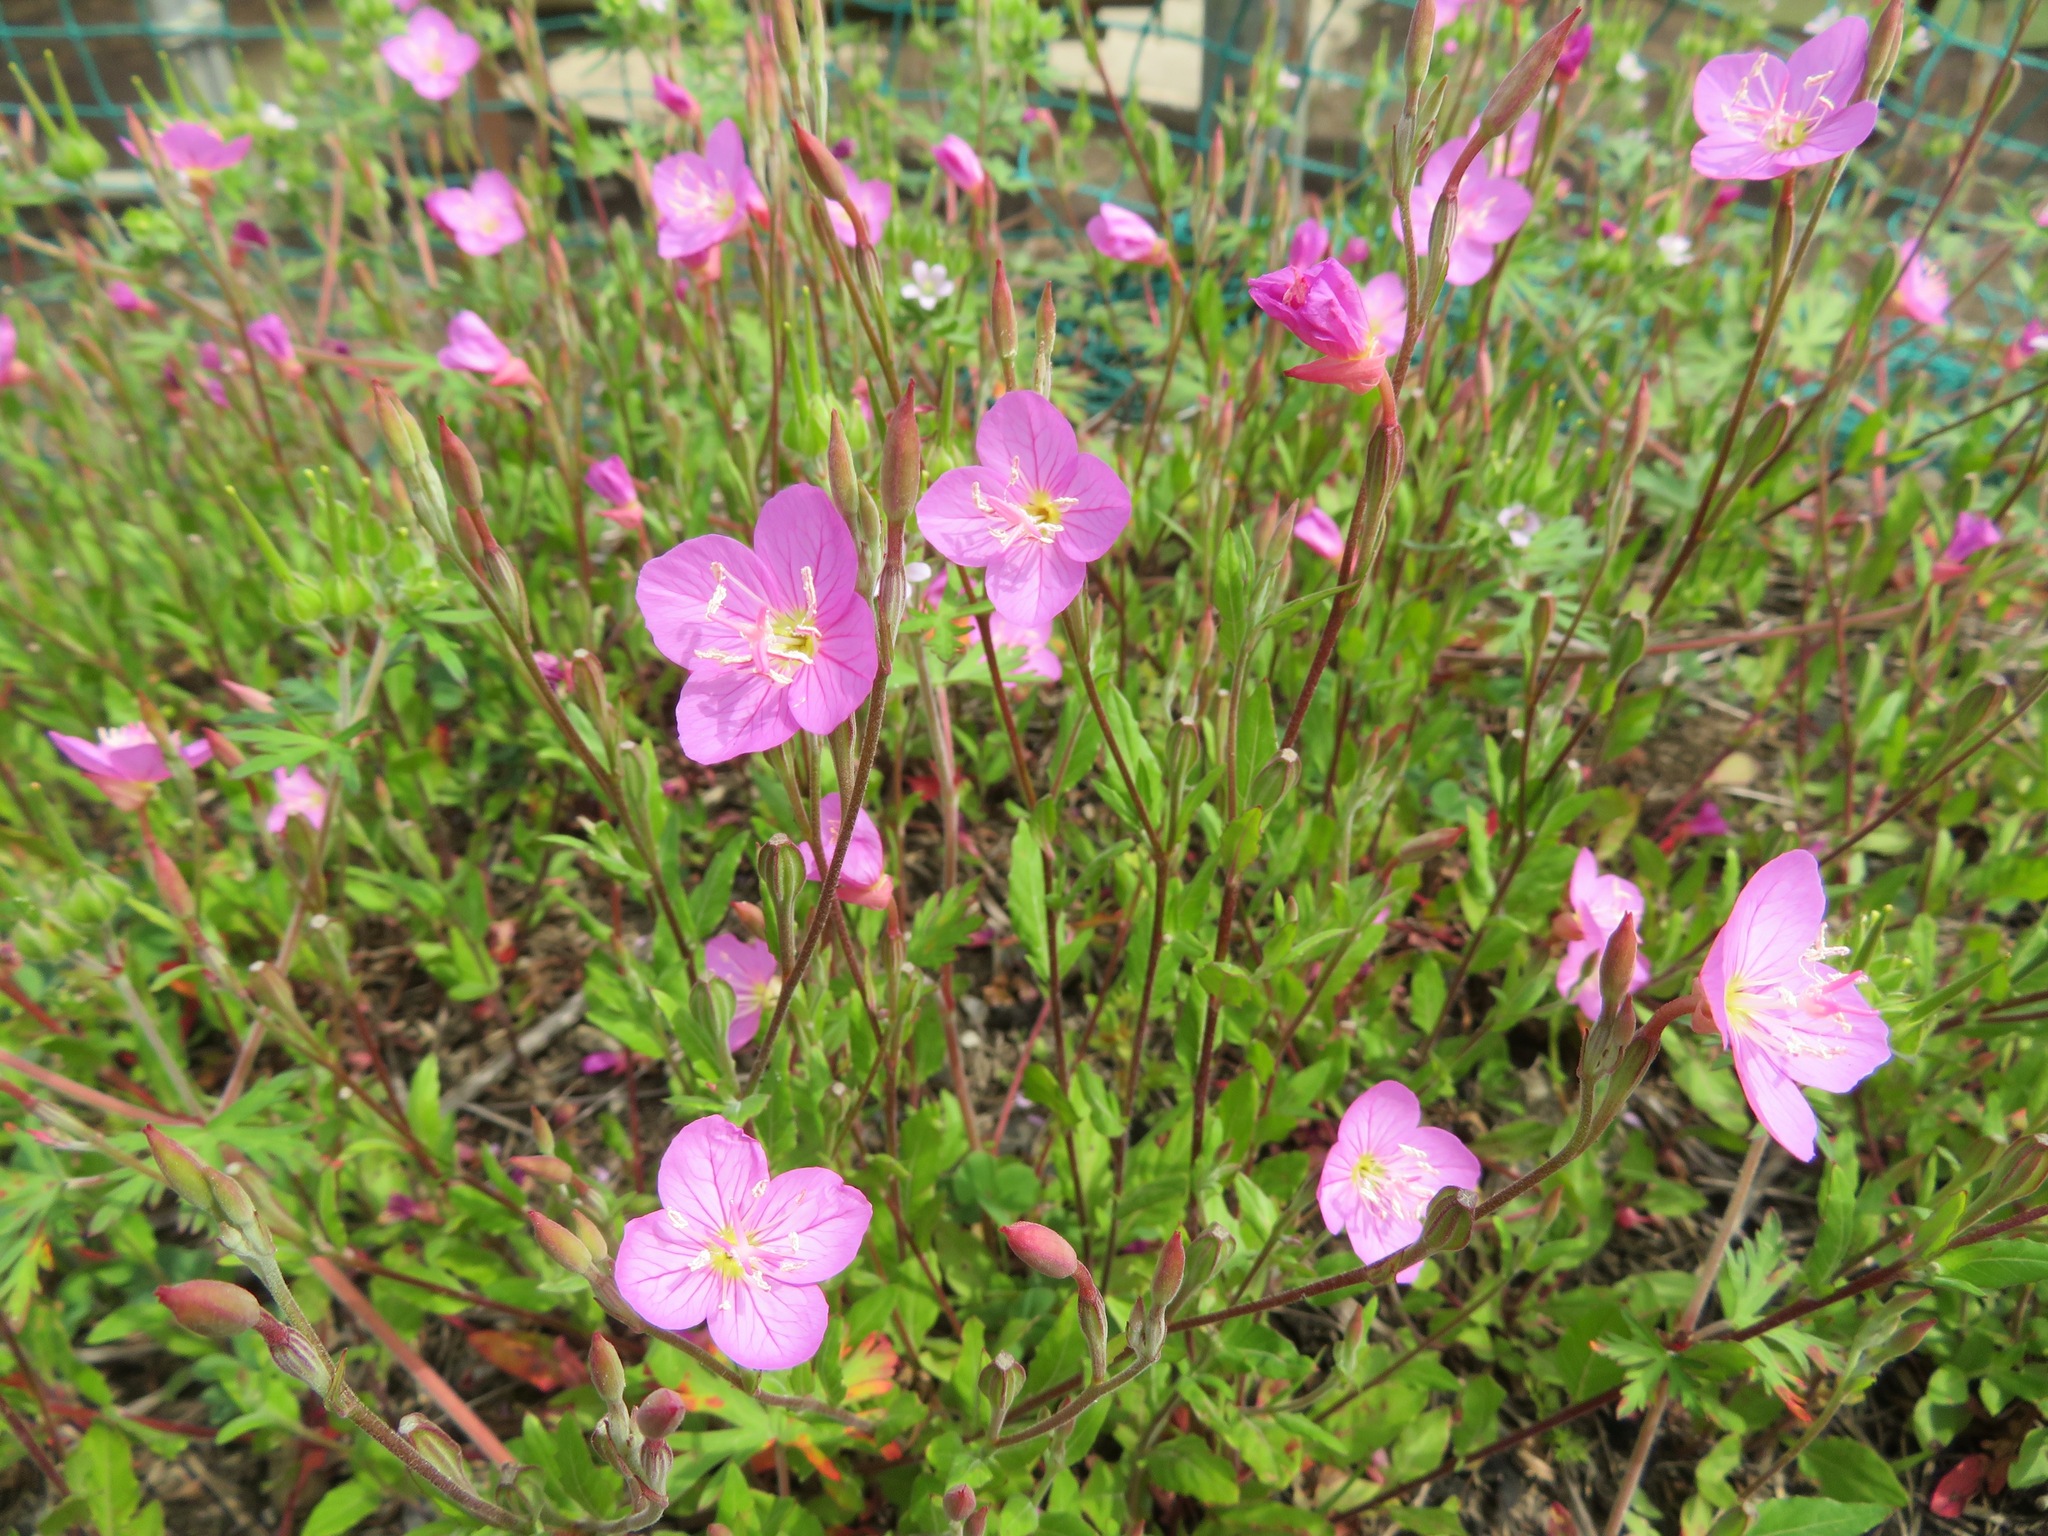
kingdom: Plantae
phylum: Tracheophyta
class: Magnoliopsida
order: Myrtales
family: Onagraceae
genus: Oenothera
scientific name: Oenothera rosea
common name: Rosy evening-primrose
